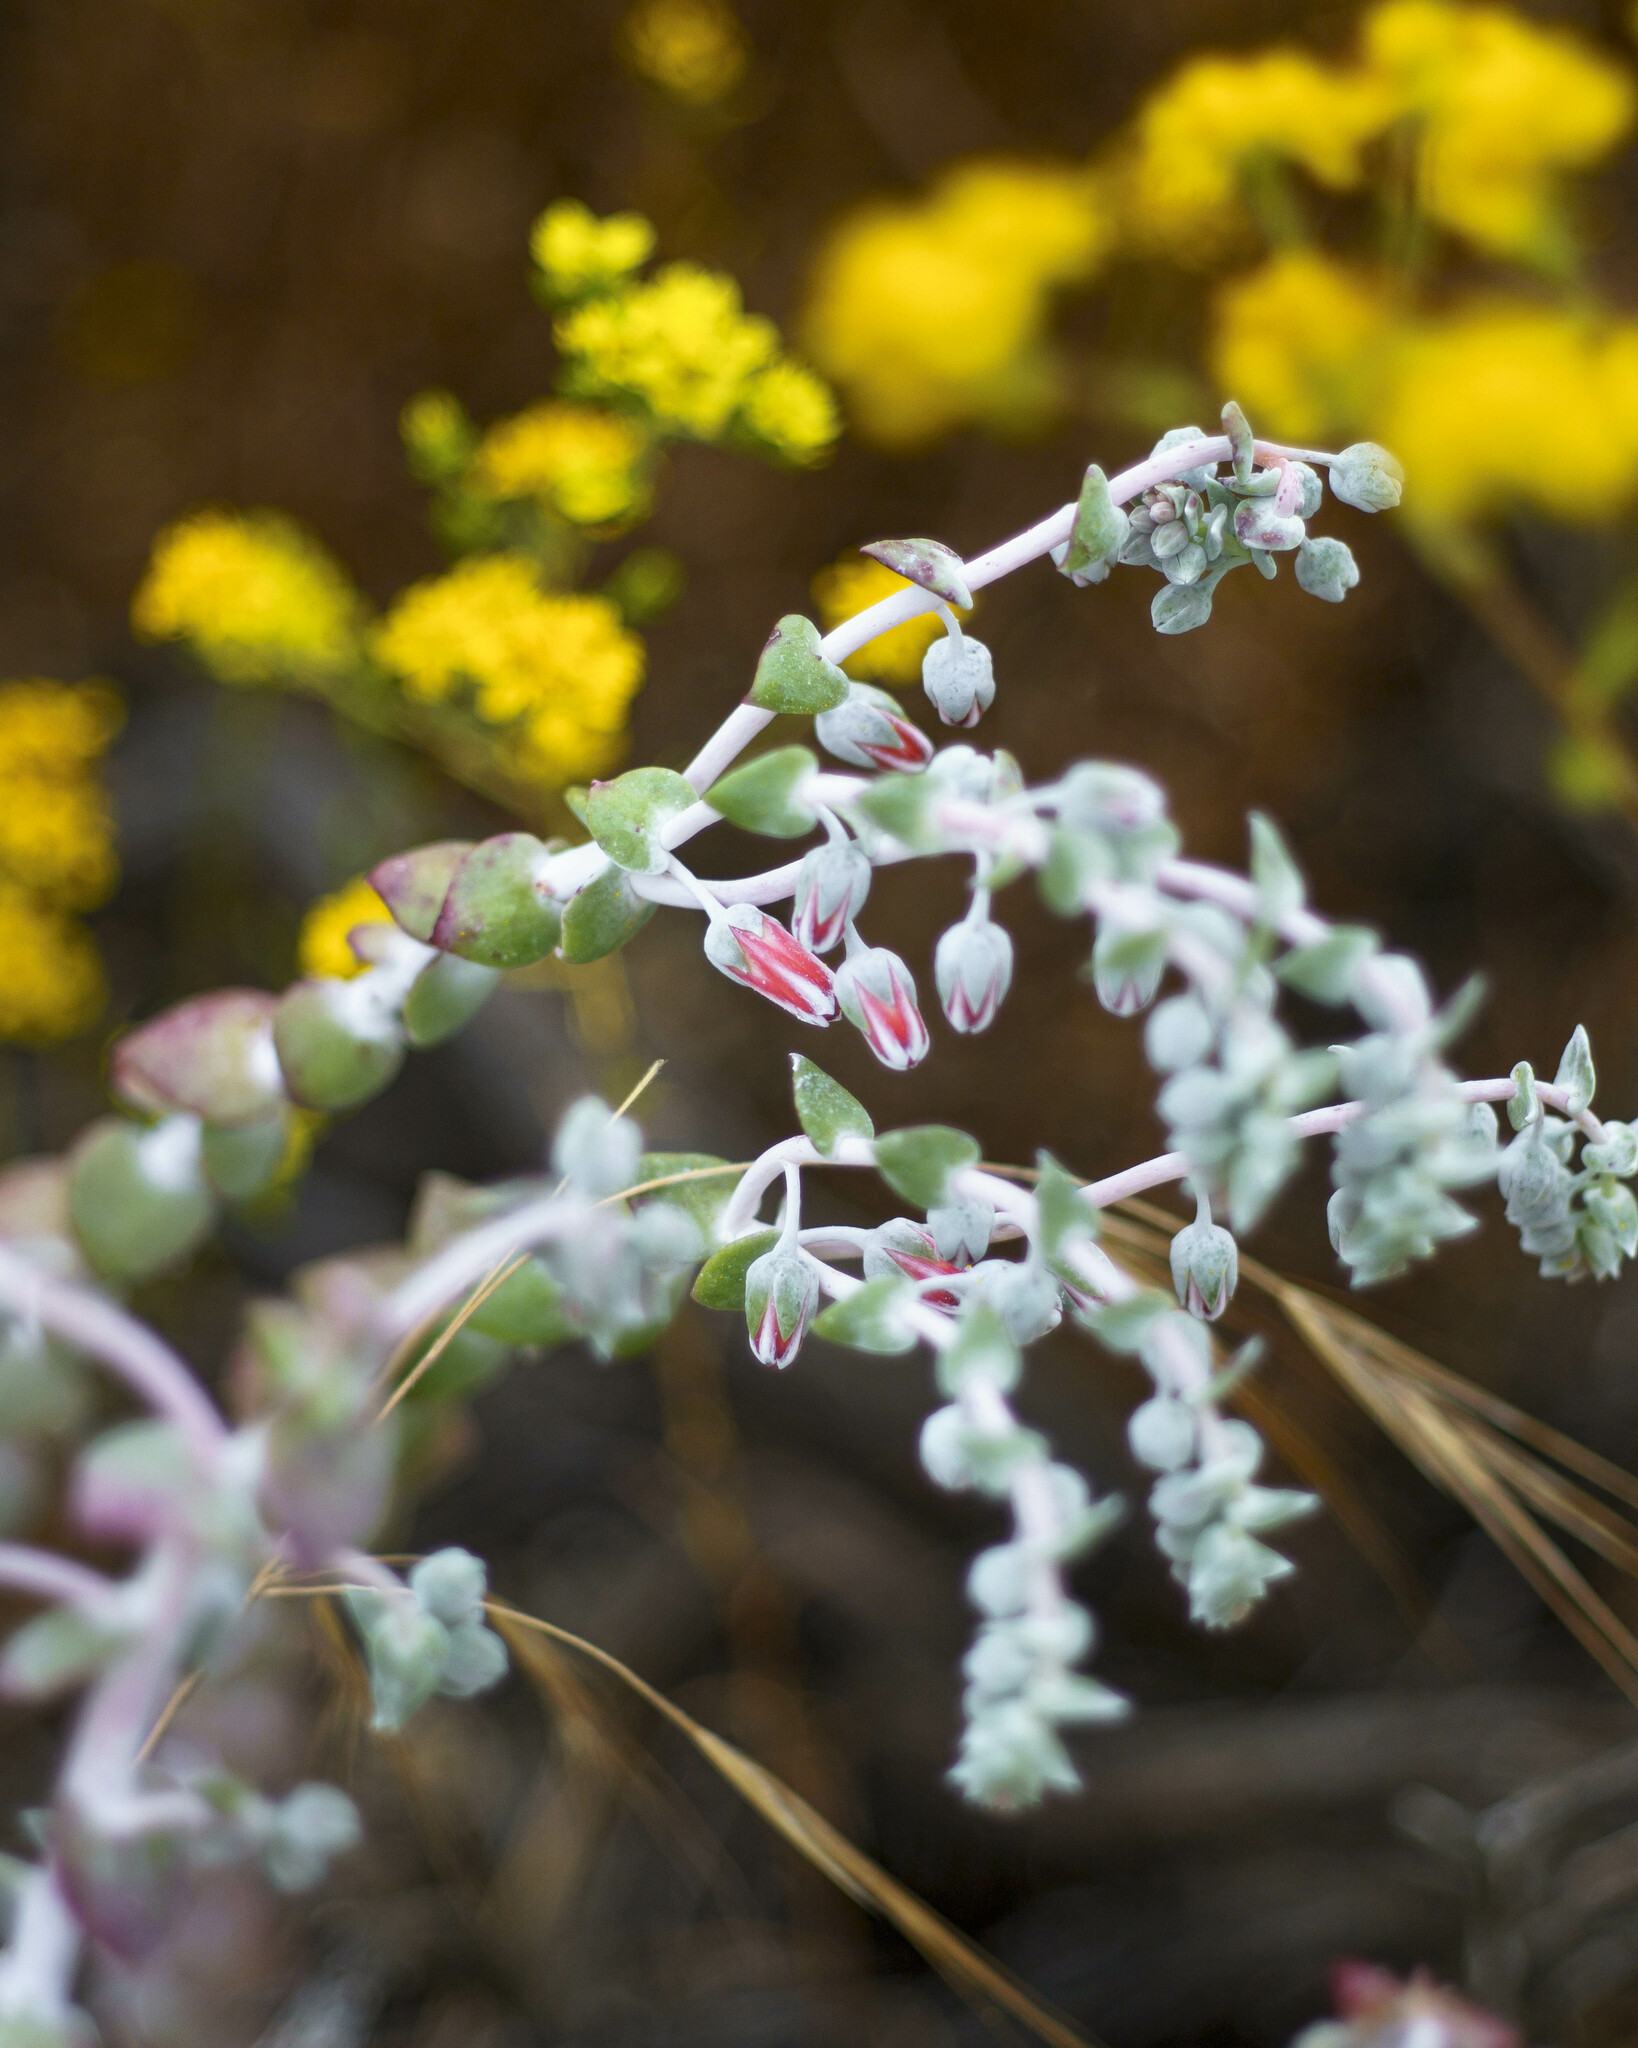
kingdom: Plantae
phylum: Tracheophyta
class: Magnoliopsida
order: Saxifragales
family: Crassulaceae
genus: Dudleya
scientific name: Dudleya pulverulenta
